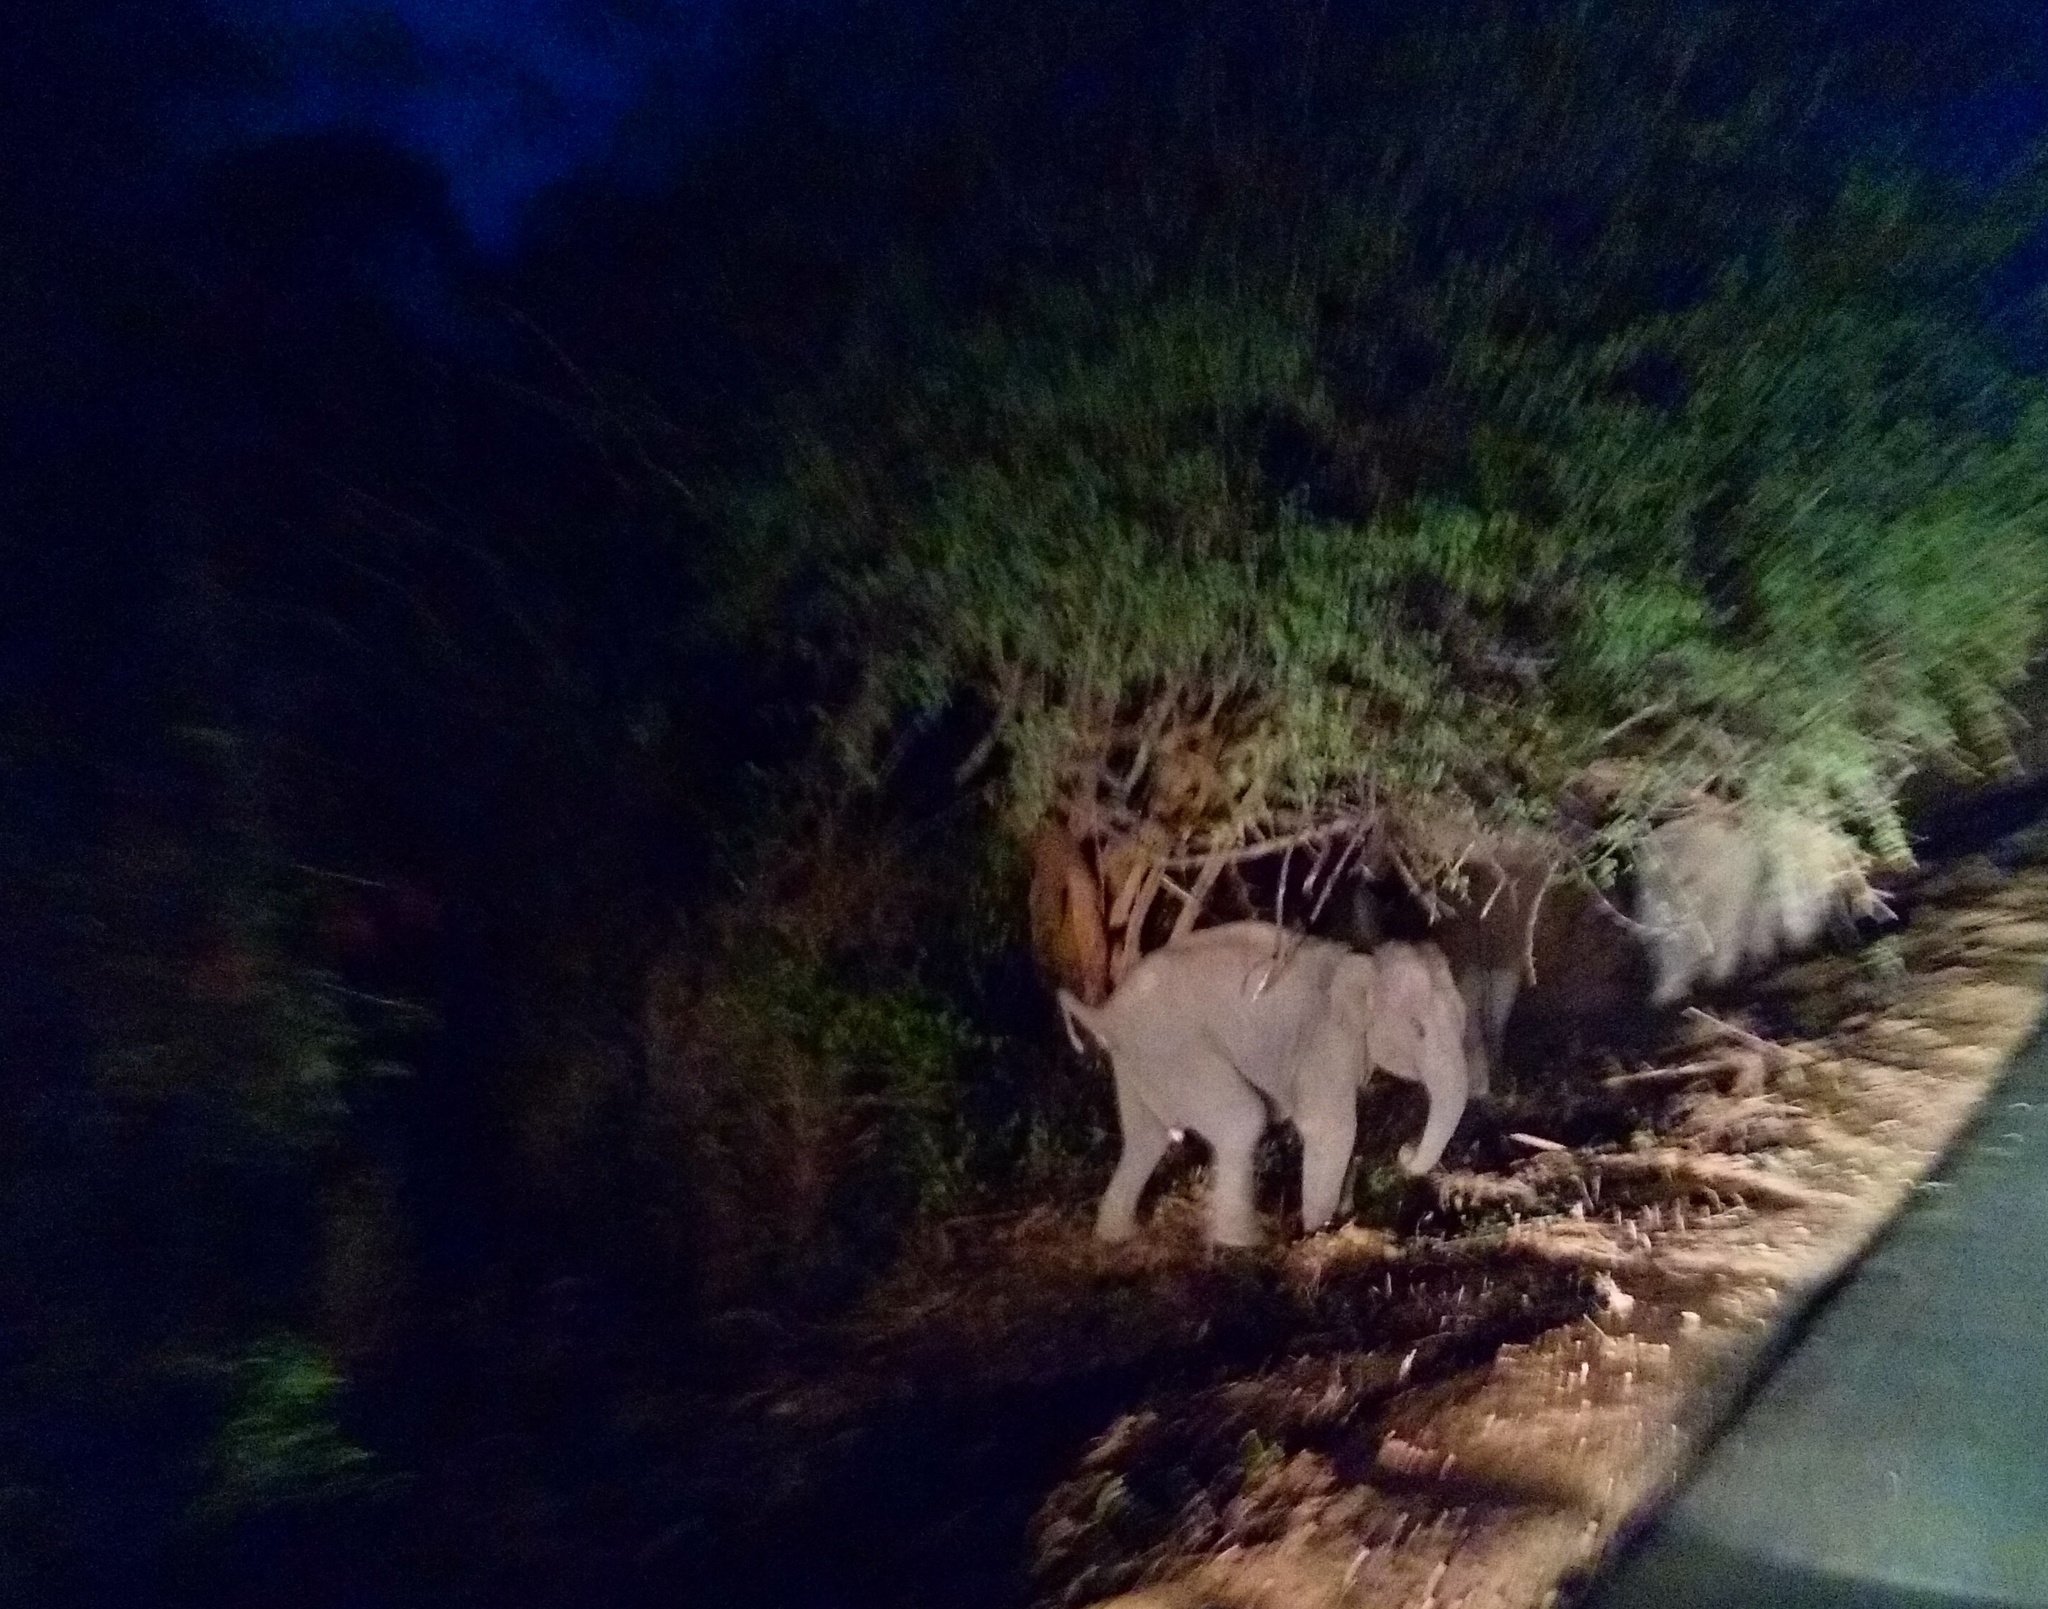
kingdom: Animalia
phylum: Chordata
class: Mammalia
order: Proboscidea
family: Elephantidae
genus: Elephas
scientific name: Elephas maximus
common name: Asian elephant
